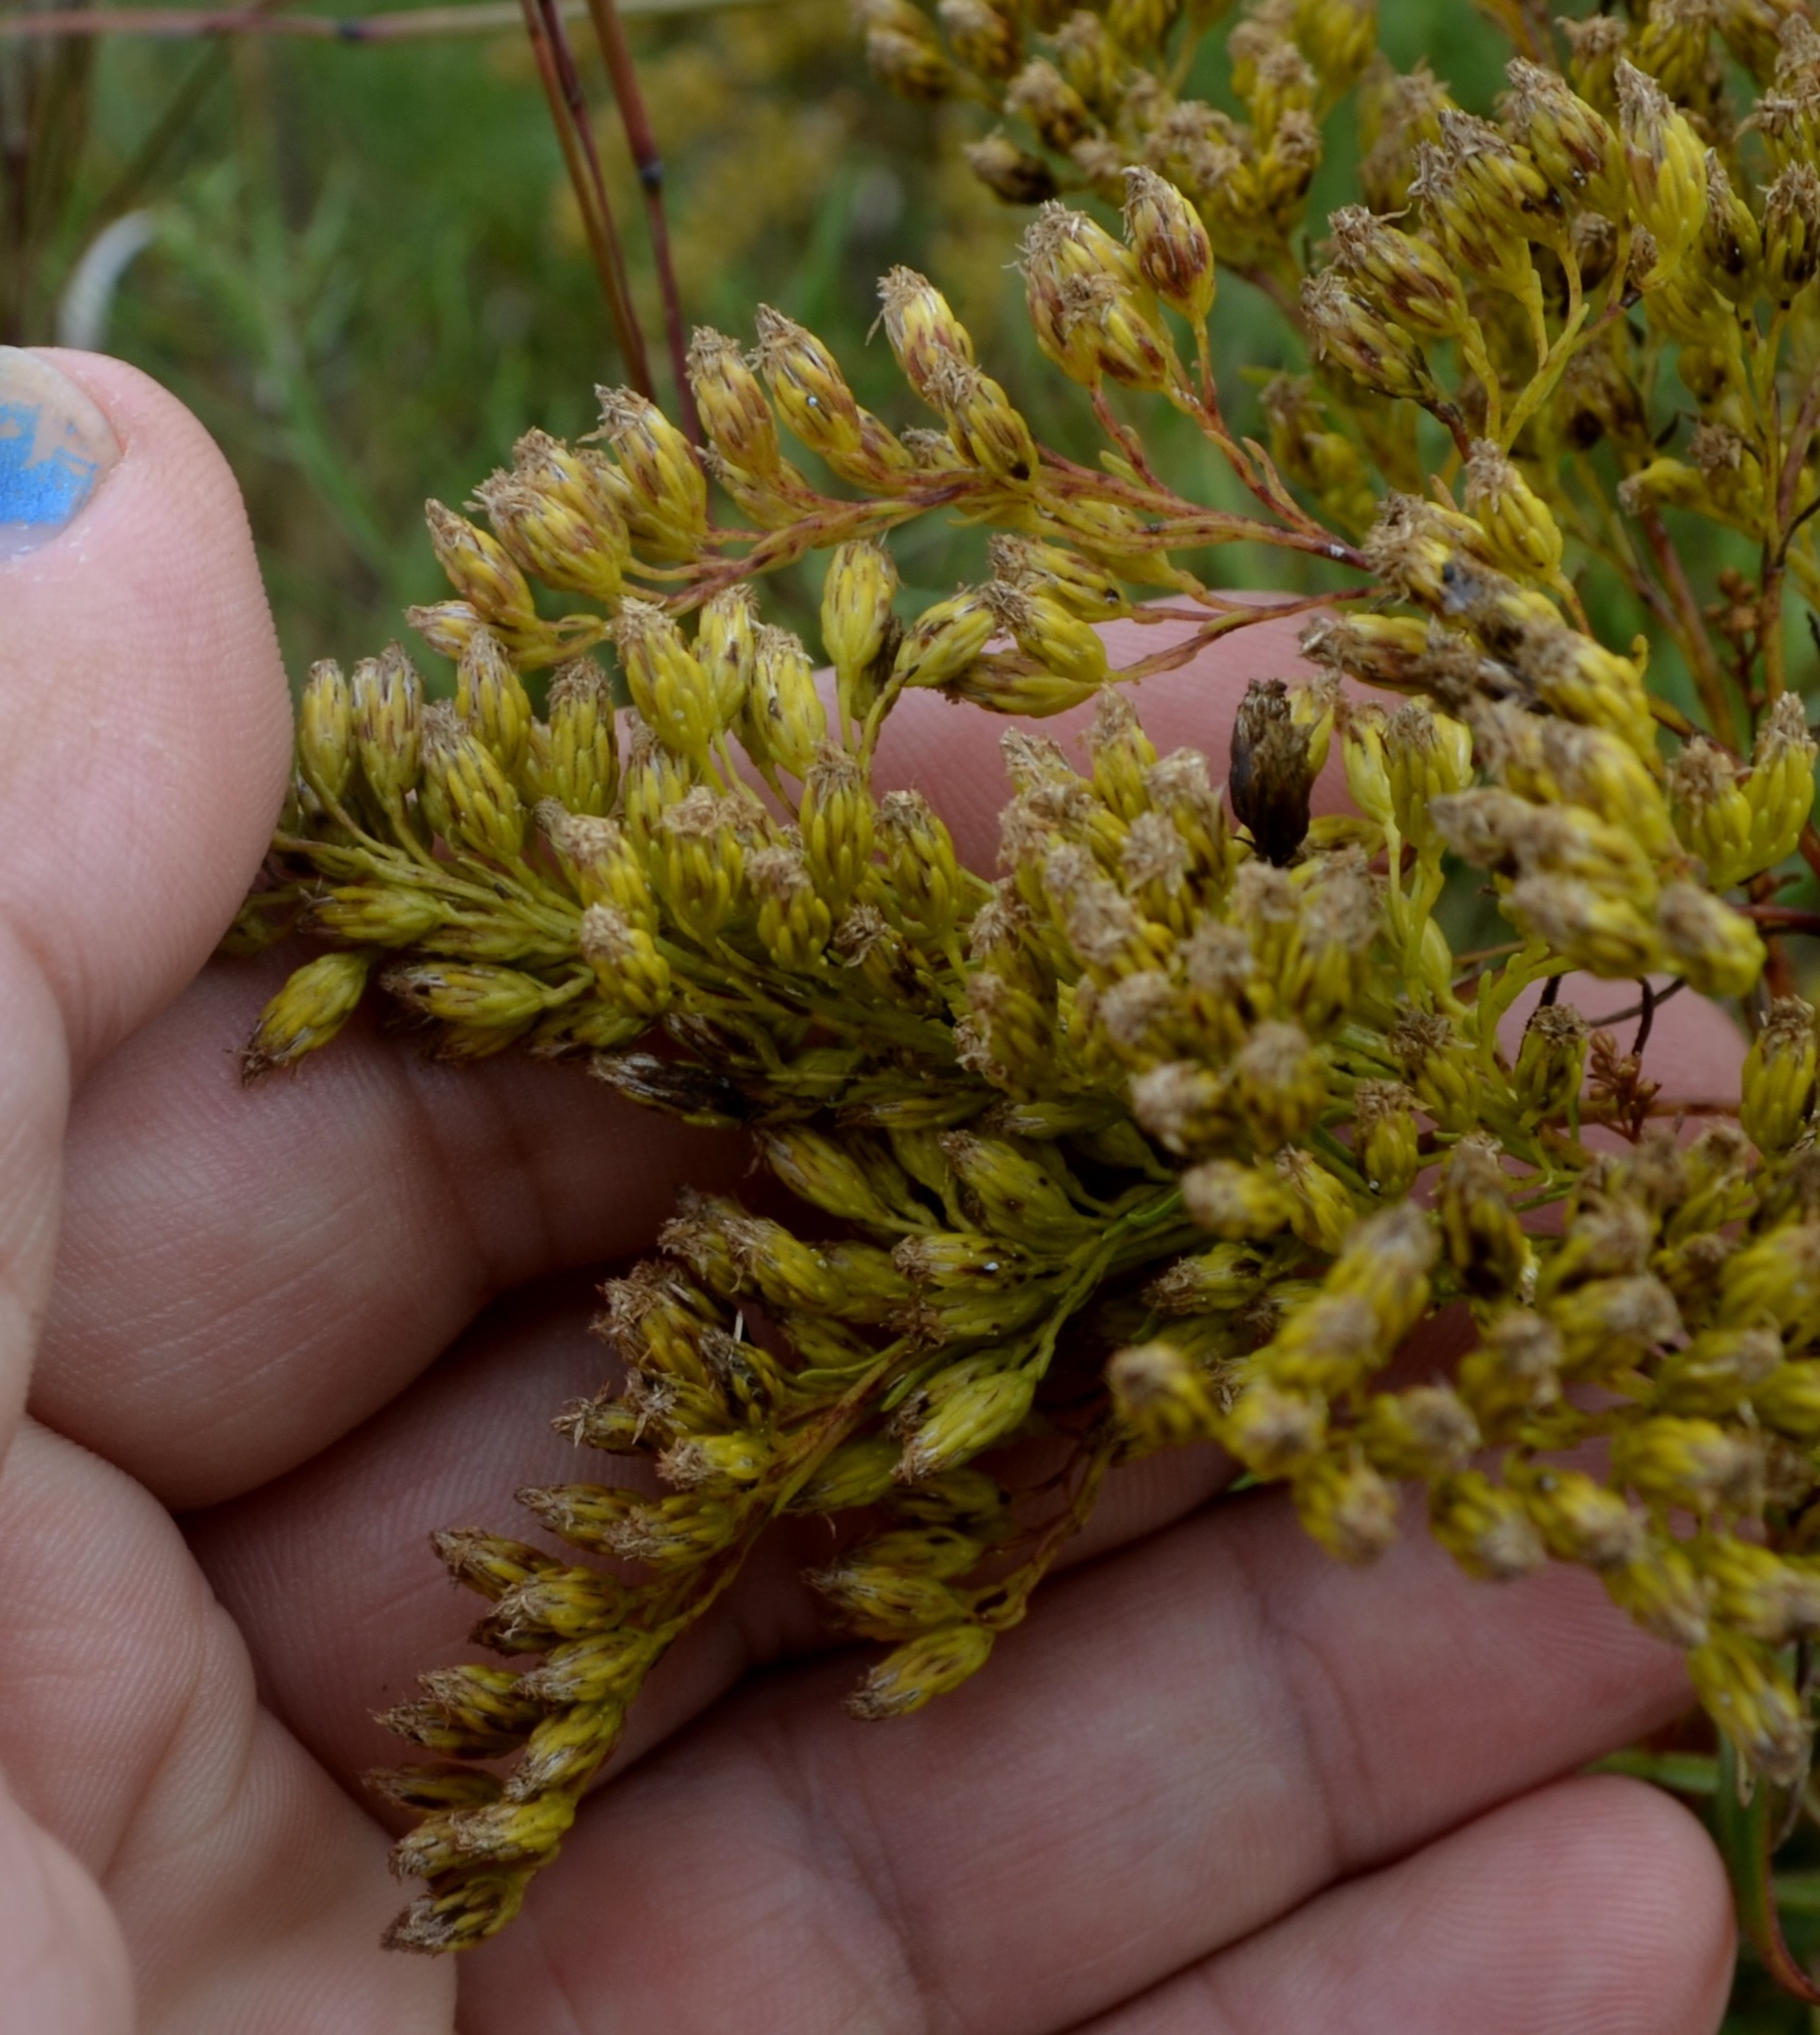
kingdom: Plantae
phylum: Tracheophyta
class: Magnoliopsida
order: Asterales
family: Asteraceae
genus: Solidago
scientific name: Solidago missouriensis
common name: Prairie goldenrod
